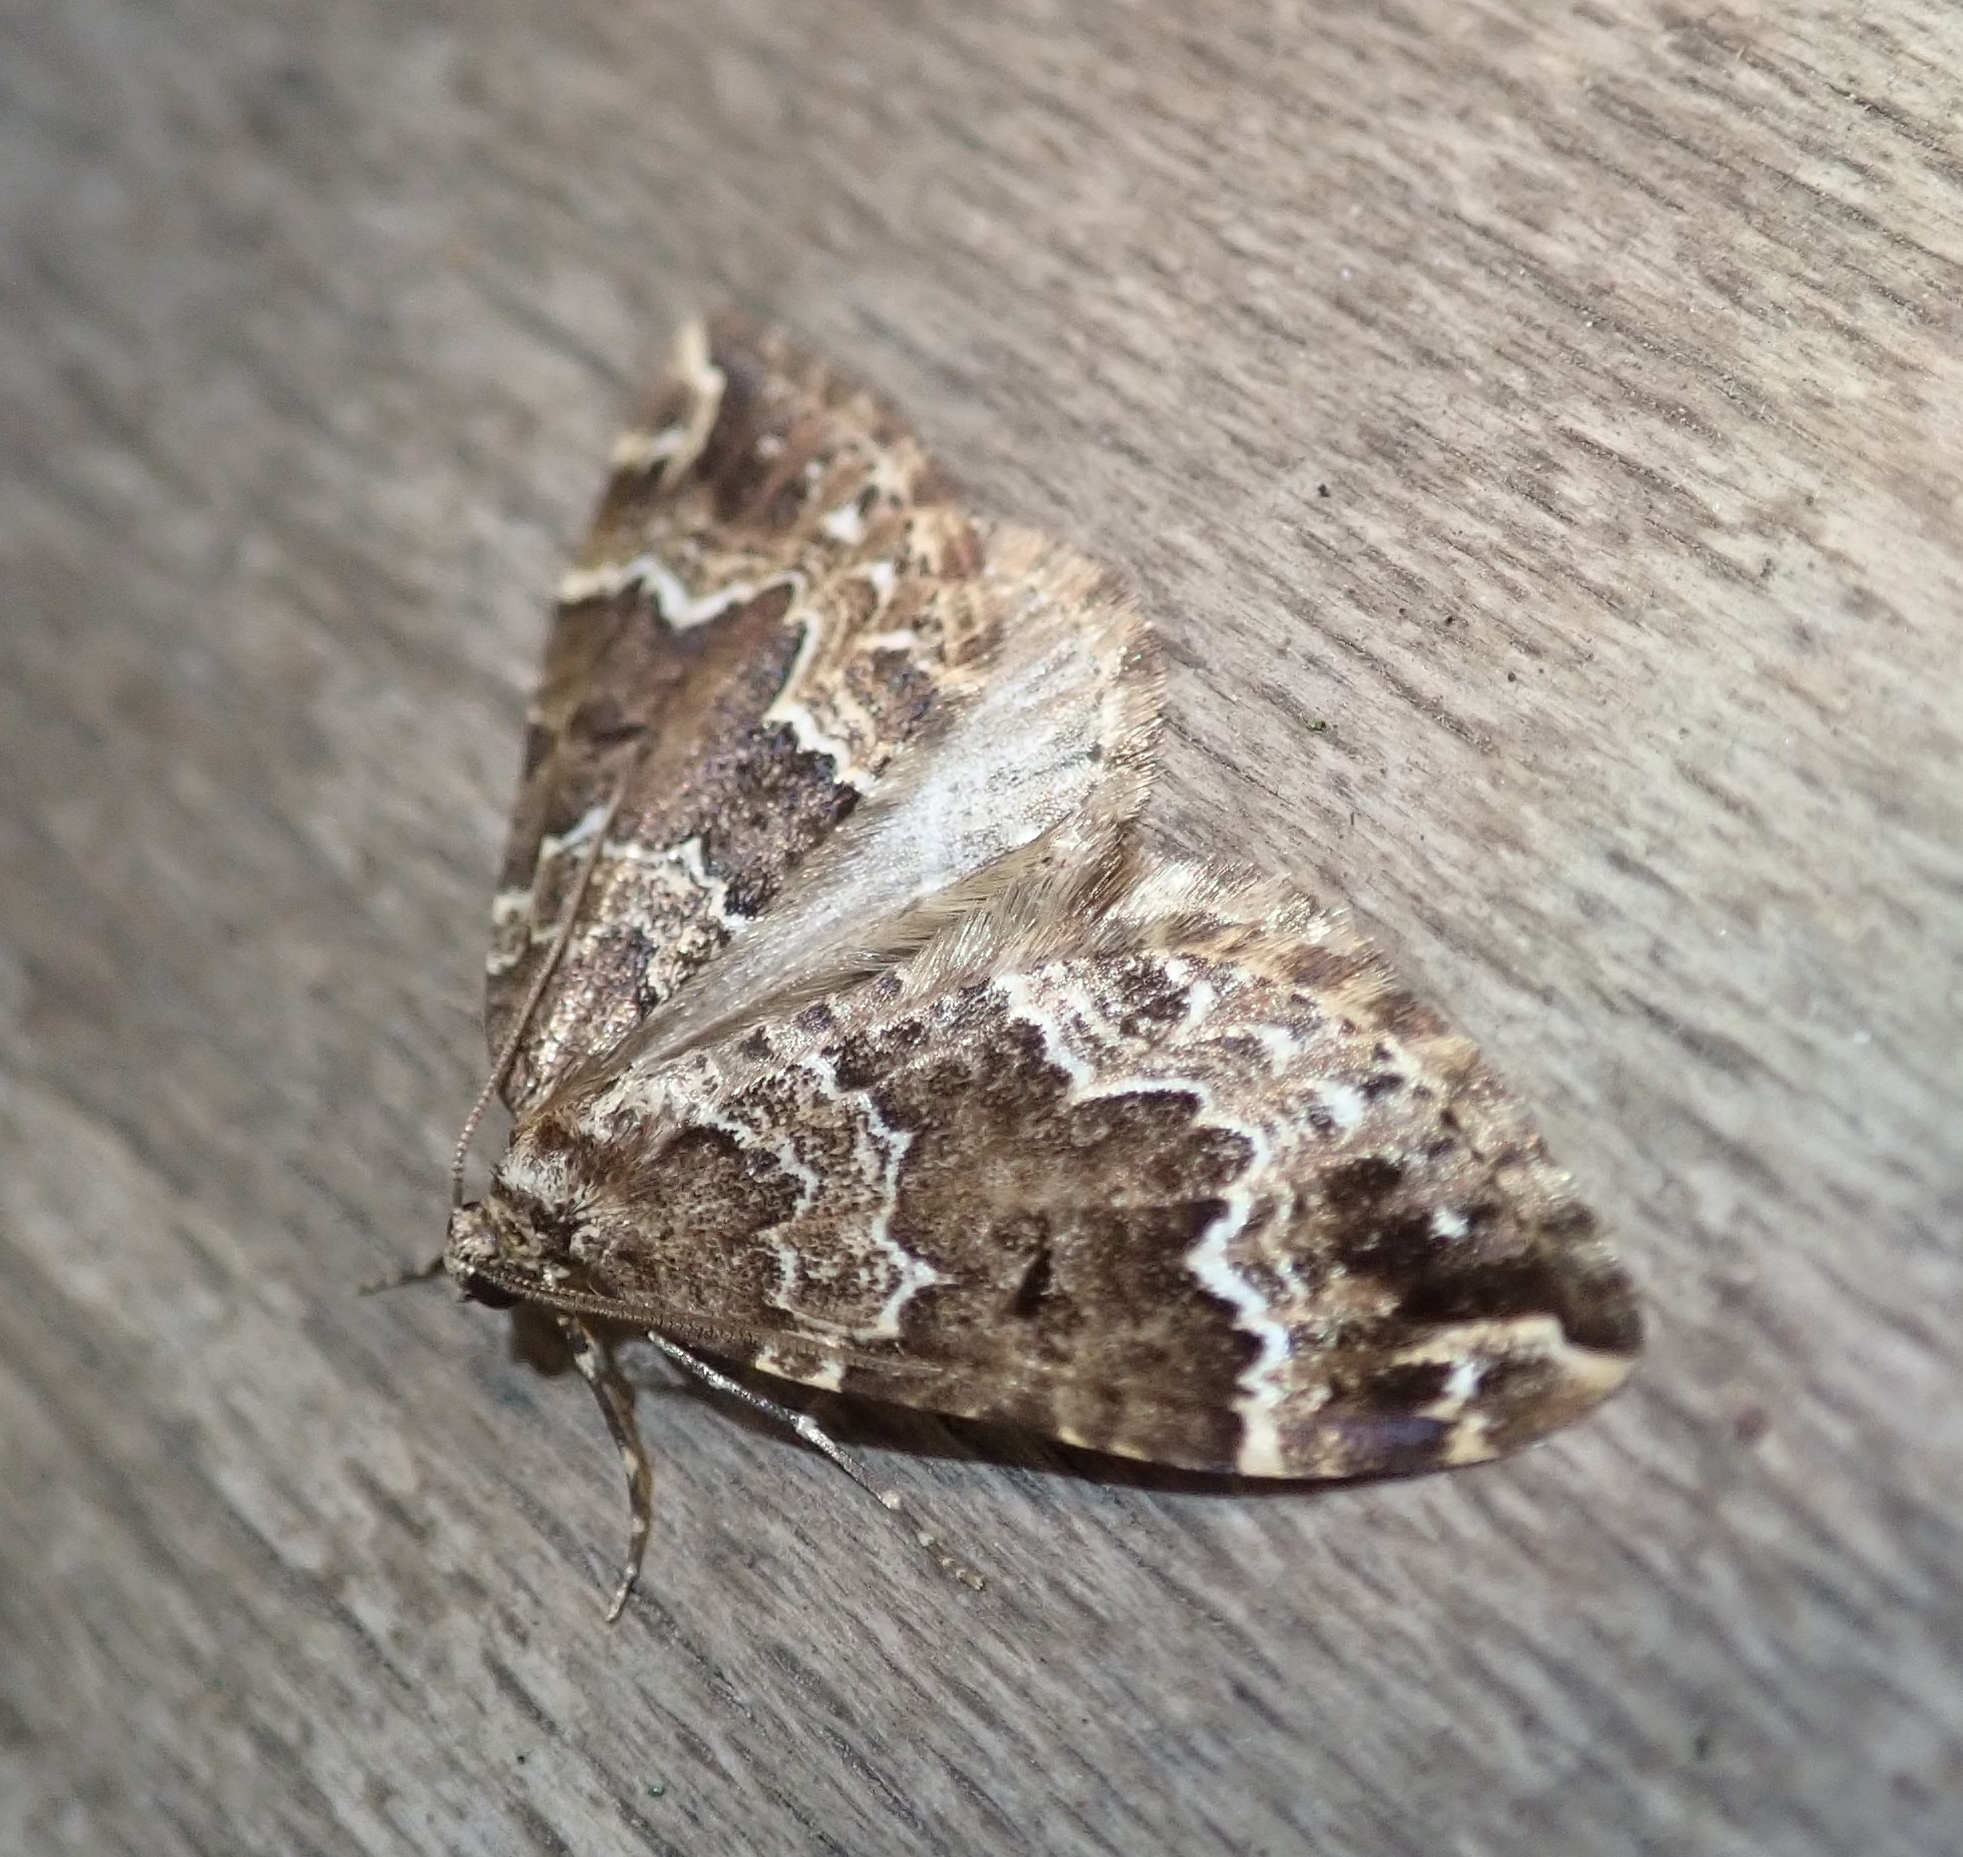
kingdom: Animalia
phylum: Arthropoda
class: Insecta
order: Lepidoptera
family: Geometridae
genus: Lampropteryx
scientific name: Lampropteryx suffumata
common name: Water carpet
